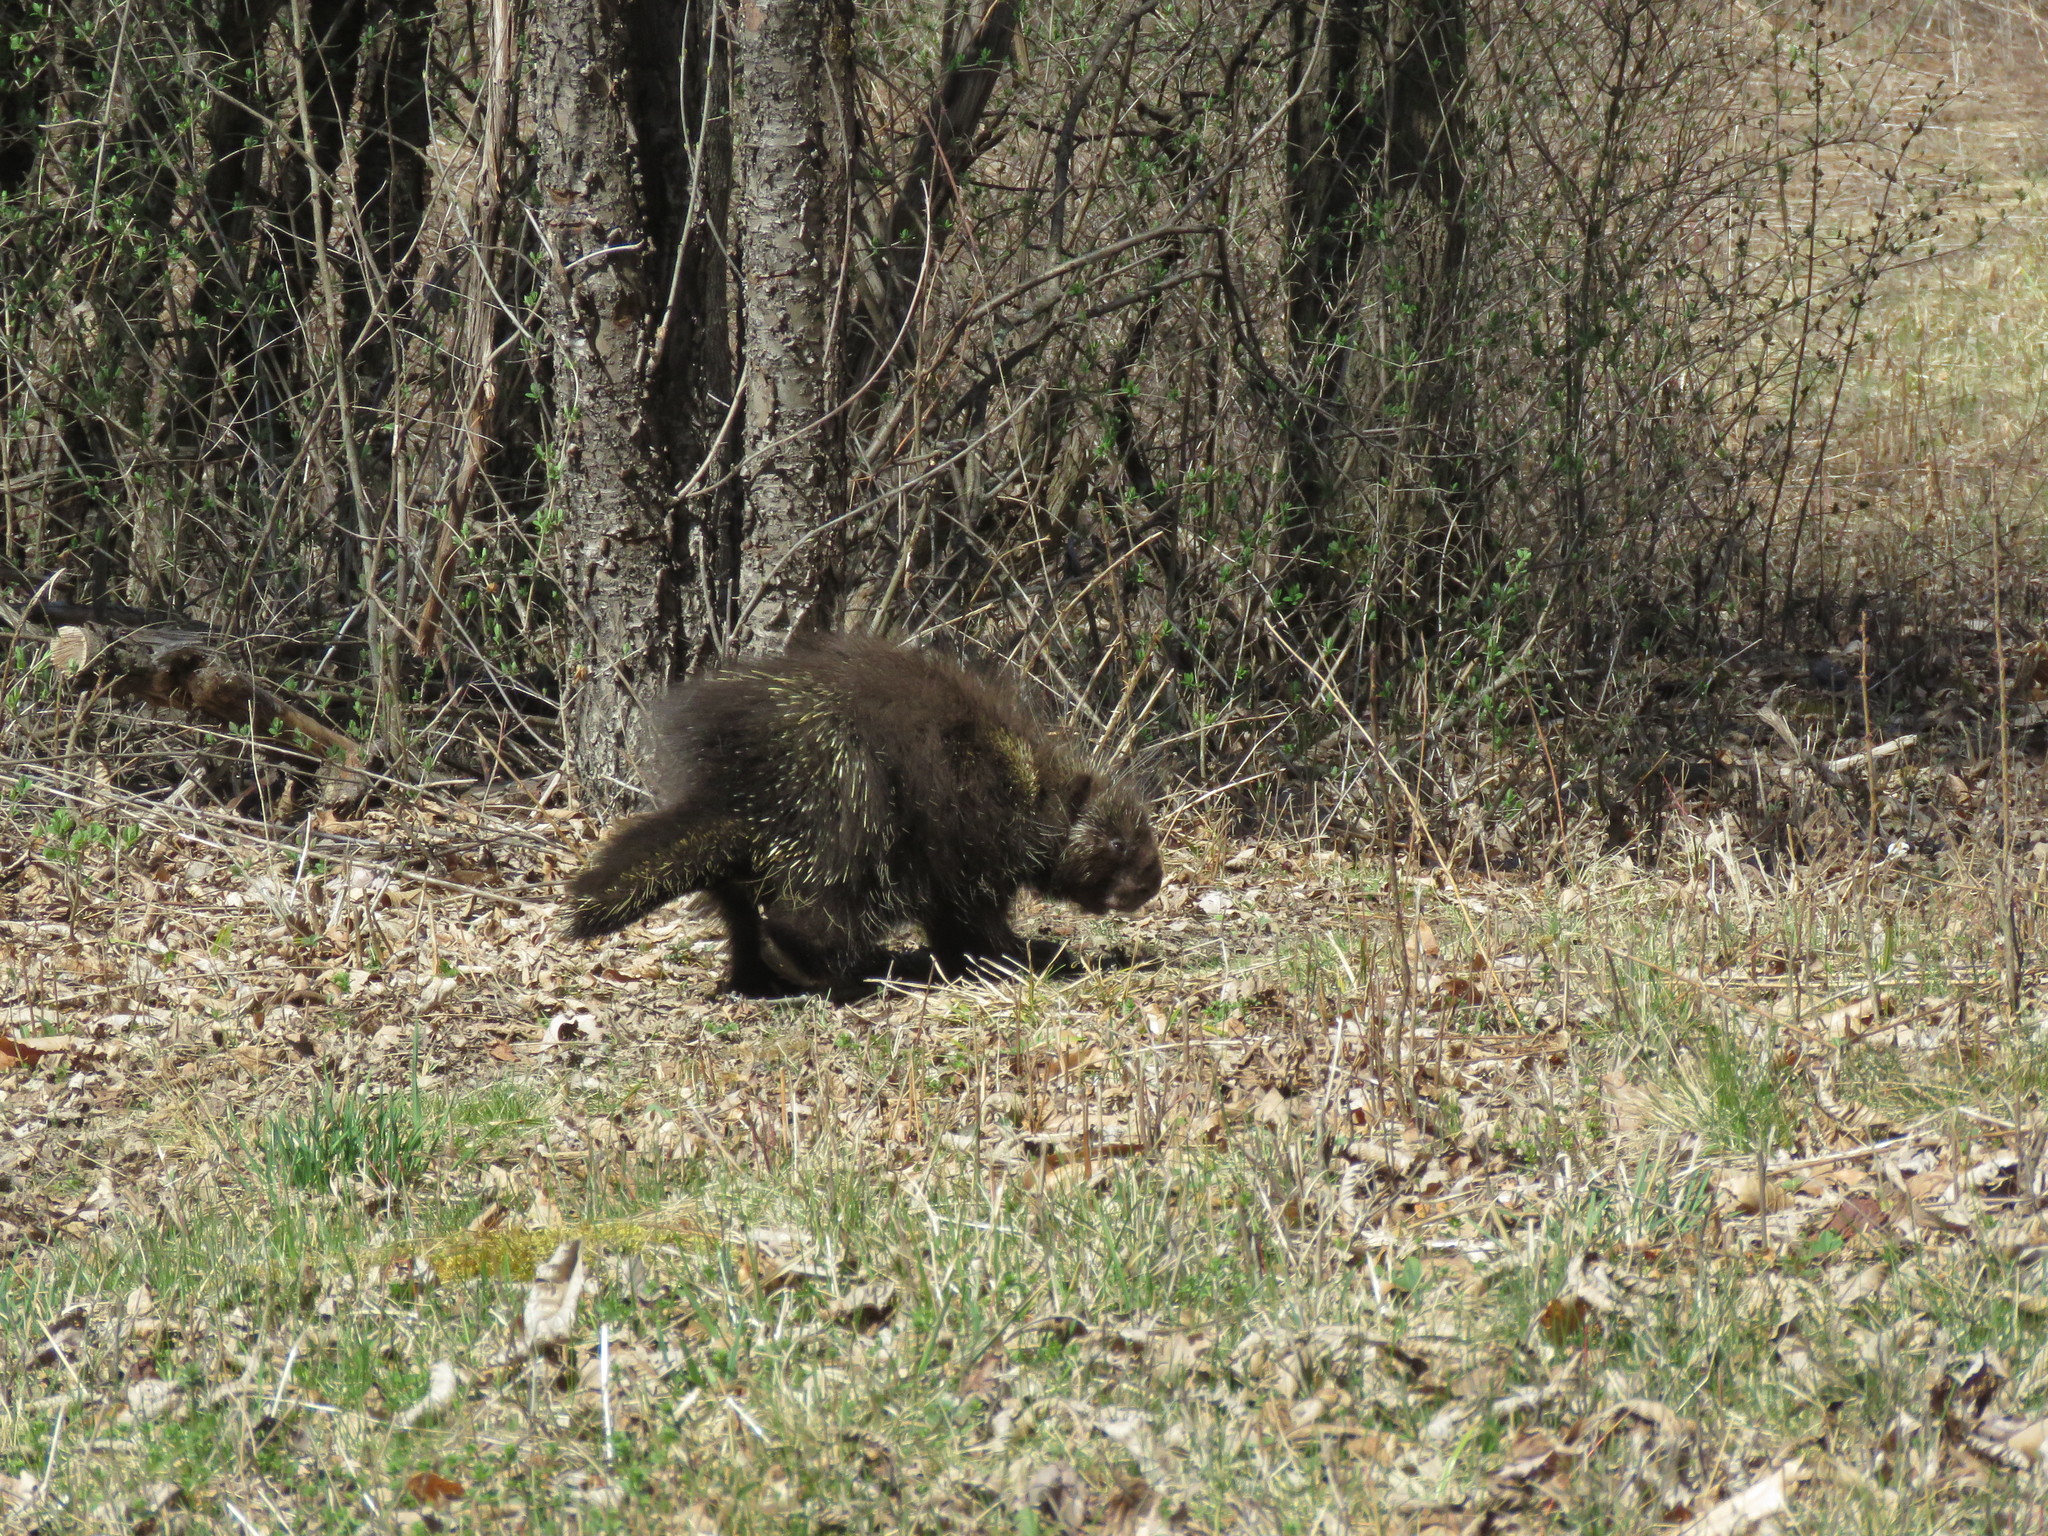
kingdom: Animalia
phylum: Chordata
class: Mammalia
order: Rodentia
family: Erethizontidae
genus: Erethizon
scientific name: Erethizon dorsatus
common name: North american porcupine
